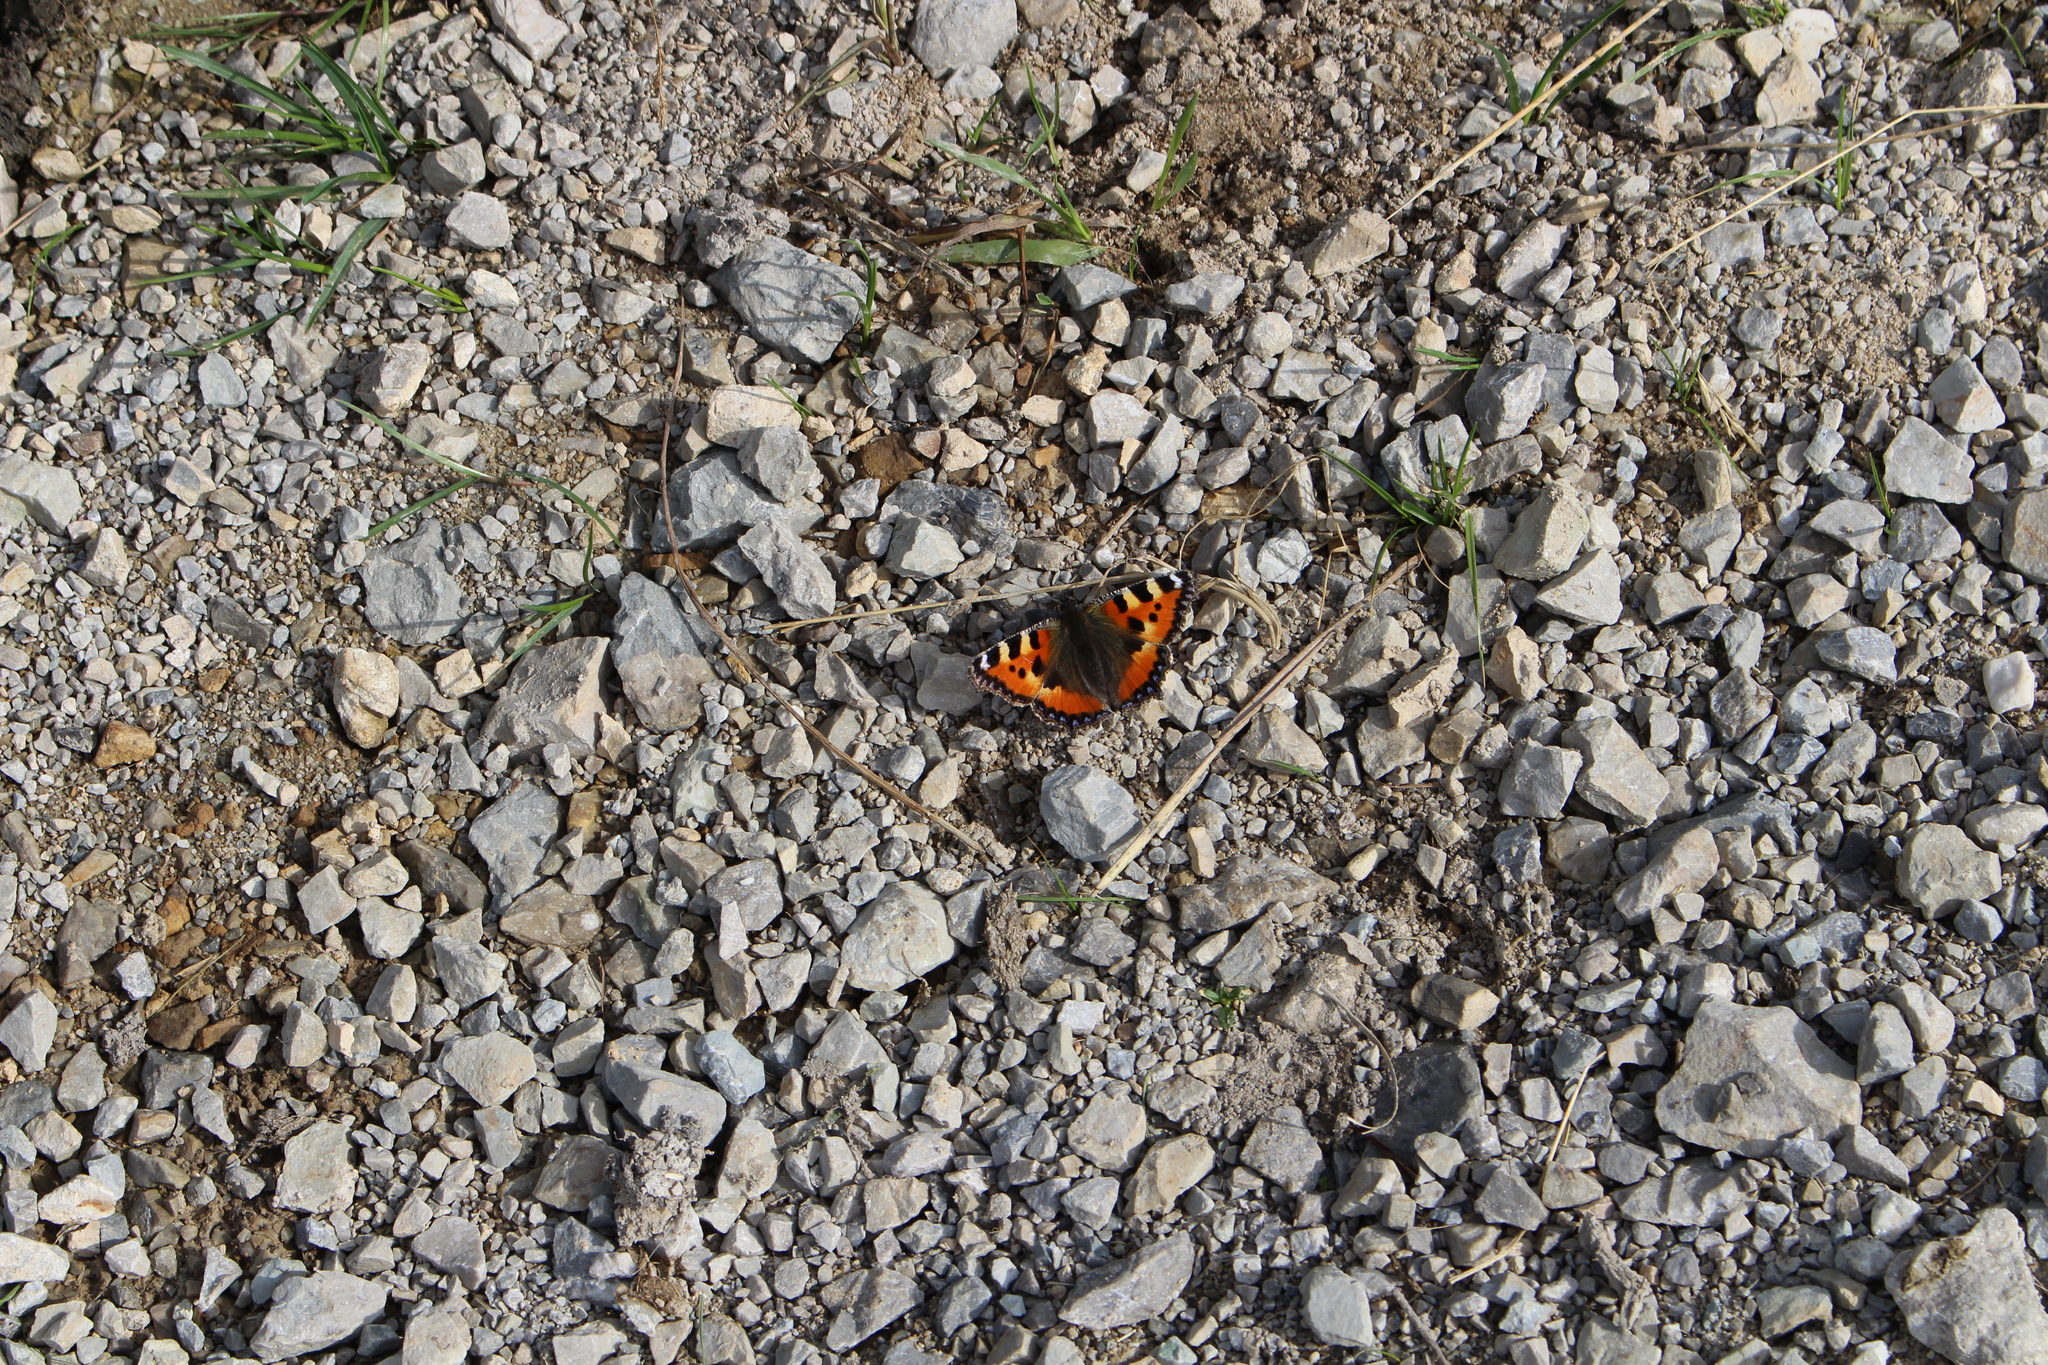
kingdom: Animalia
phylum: Arthropoda
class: Insecta
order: Lepidoptera
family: Nymphalidae
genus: Aglais
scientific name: Aglais urticae
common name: Small tortoiseshell
